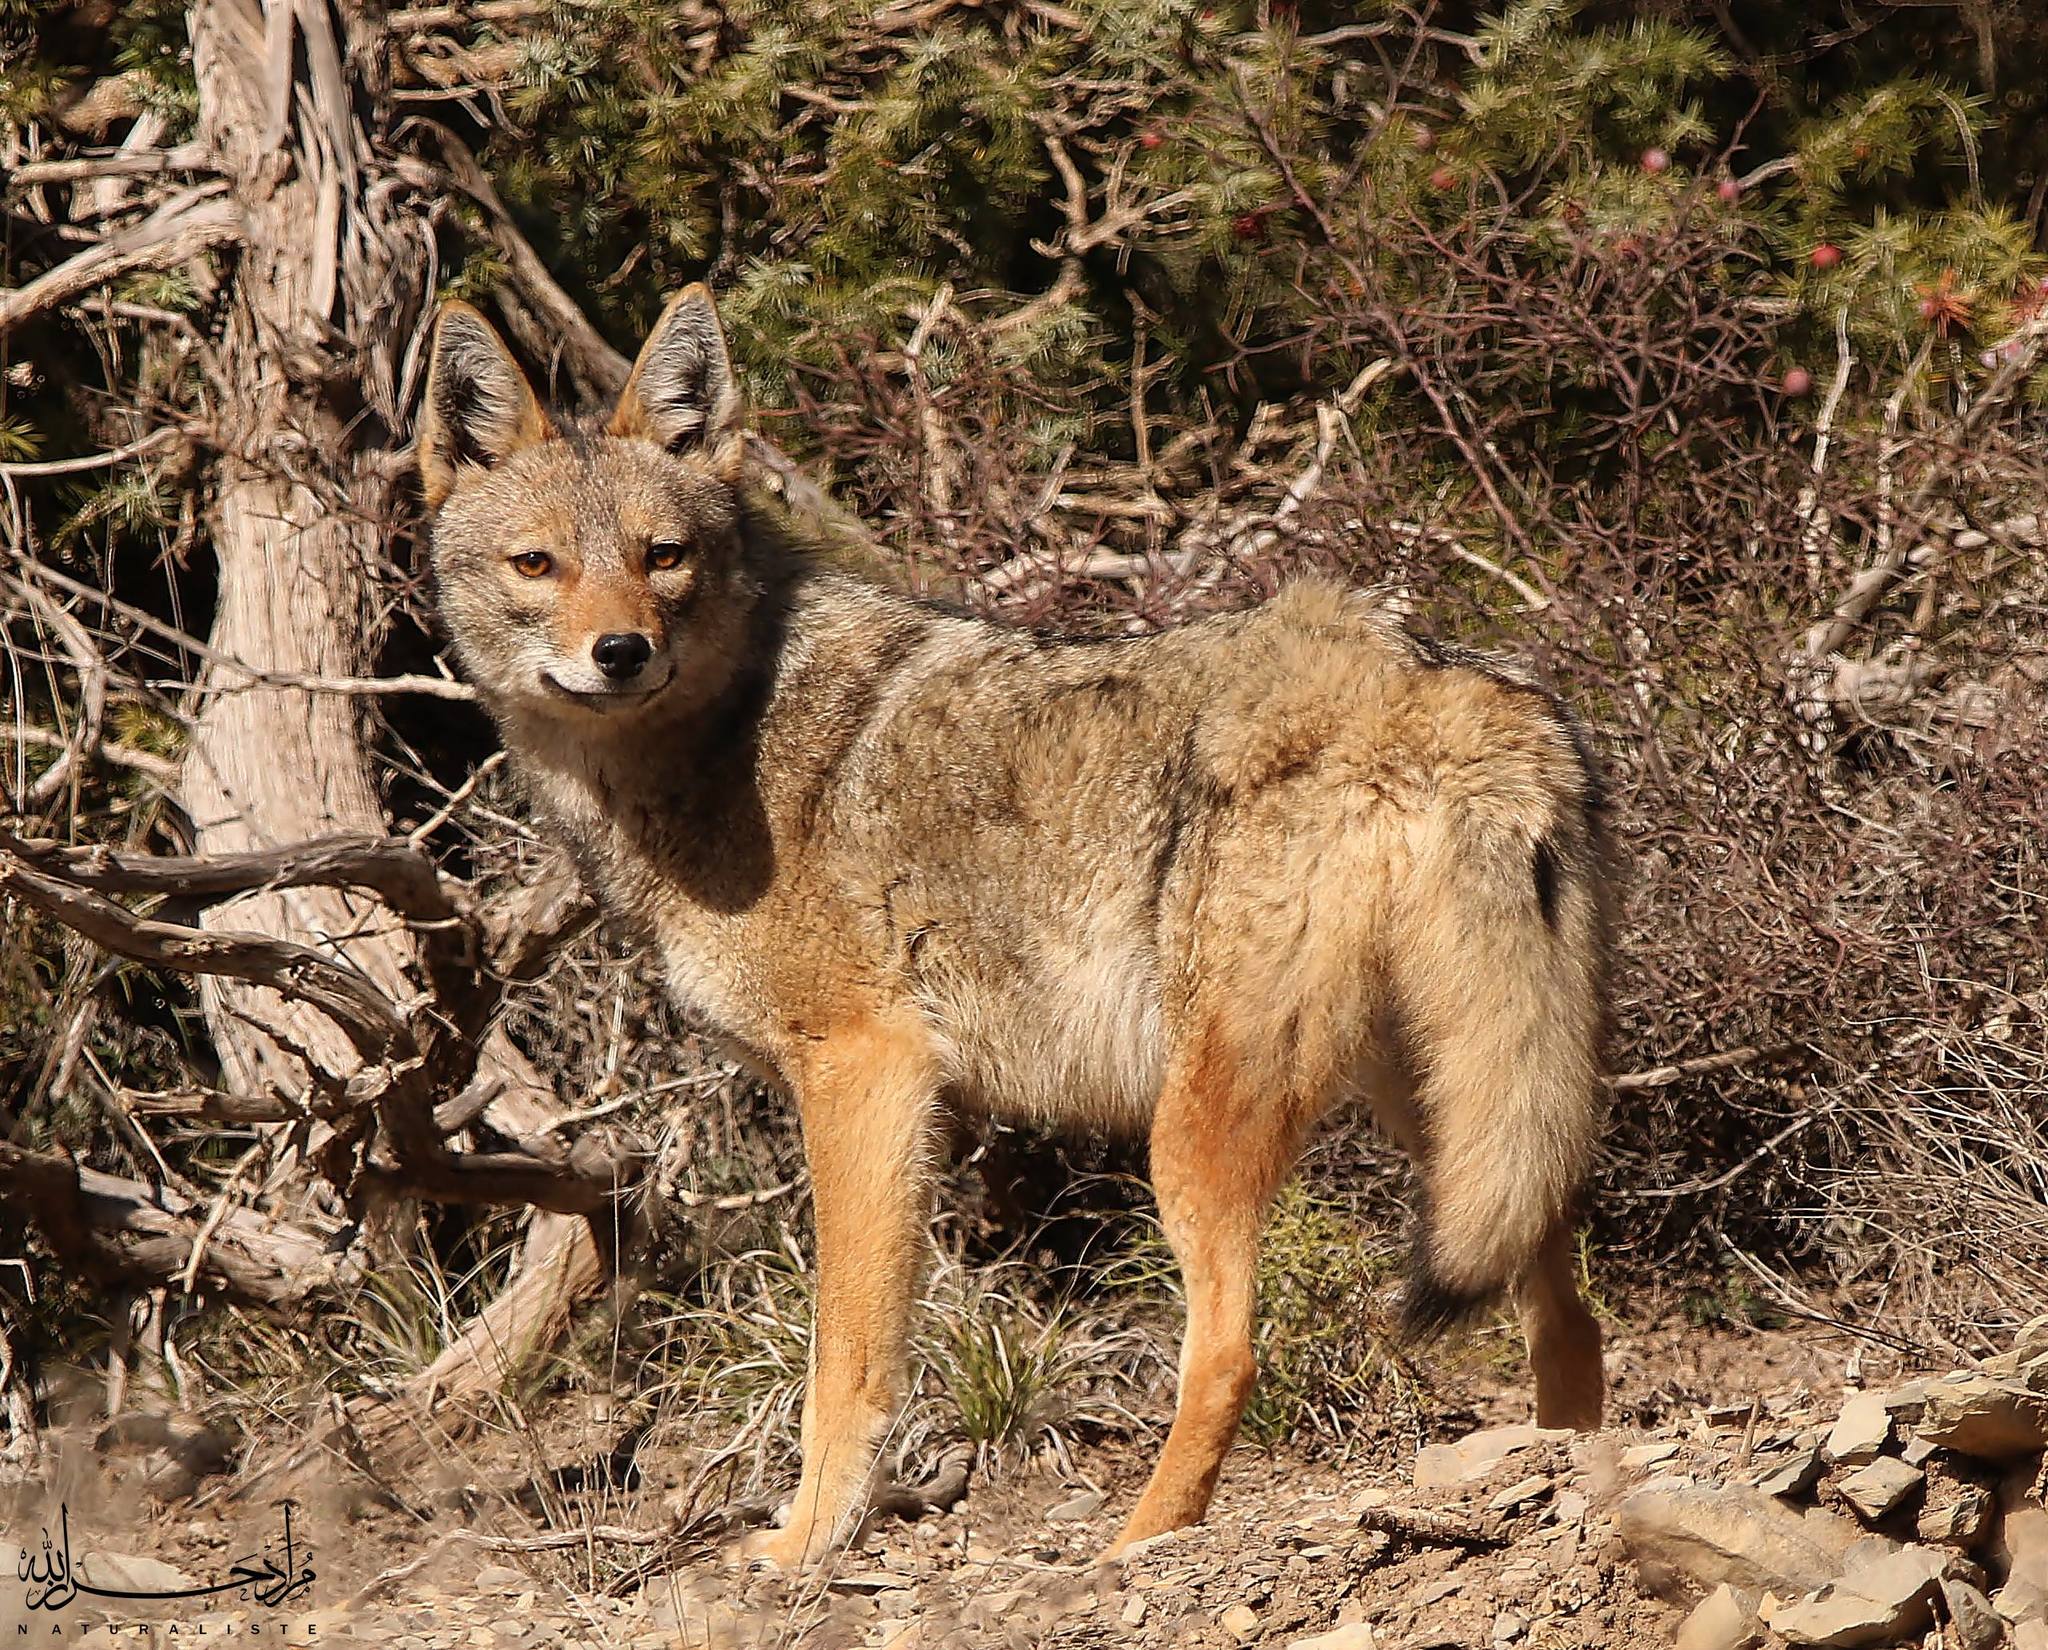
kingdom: Animalia
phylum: Chordata
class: Mammalia
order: Carnivora
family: Canidae
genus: Canis
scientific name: Canis lupaster
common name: African golden wolf
